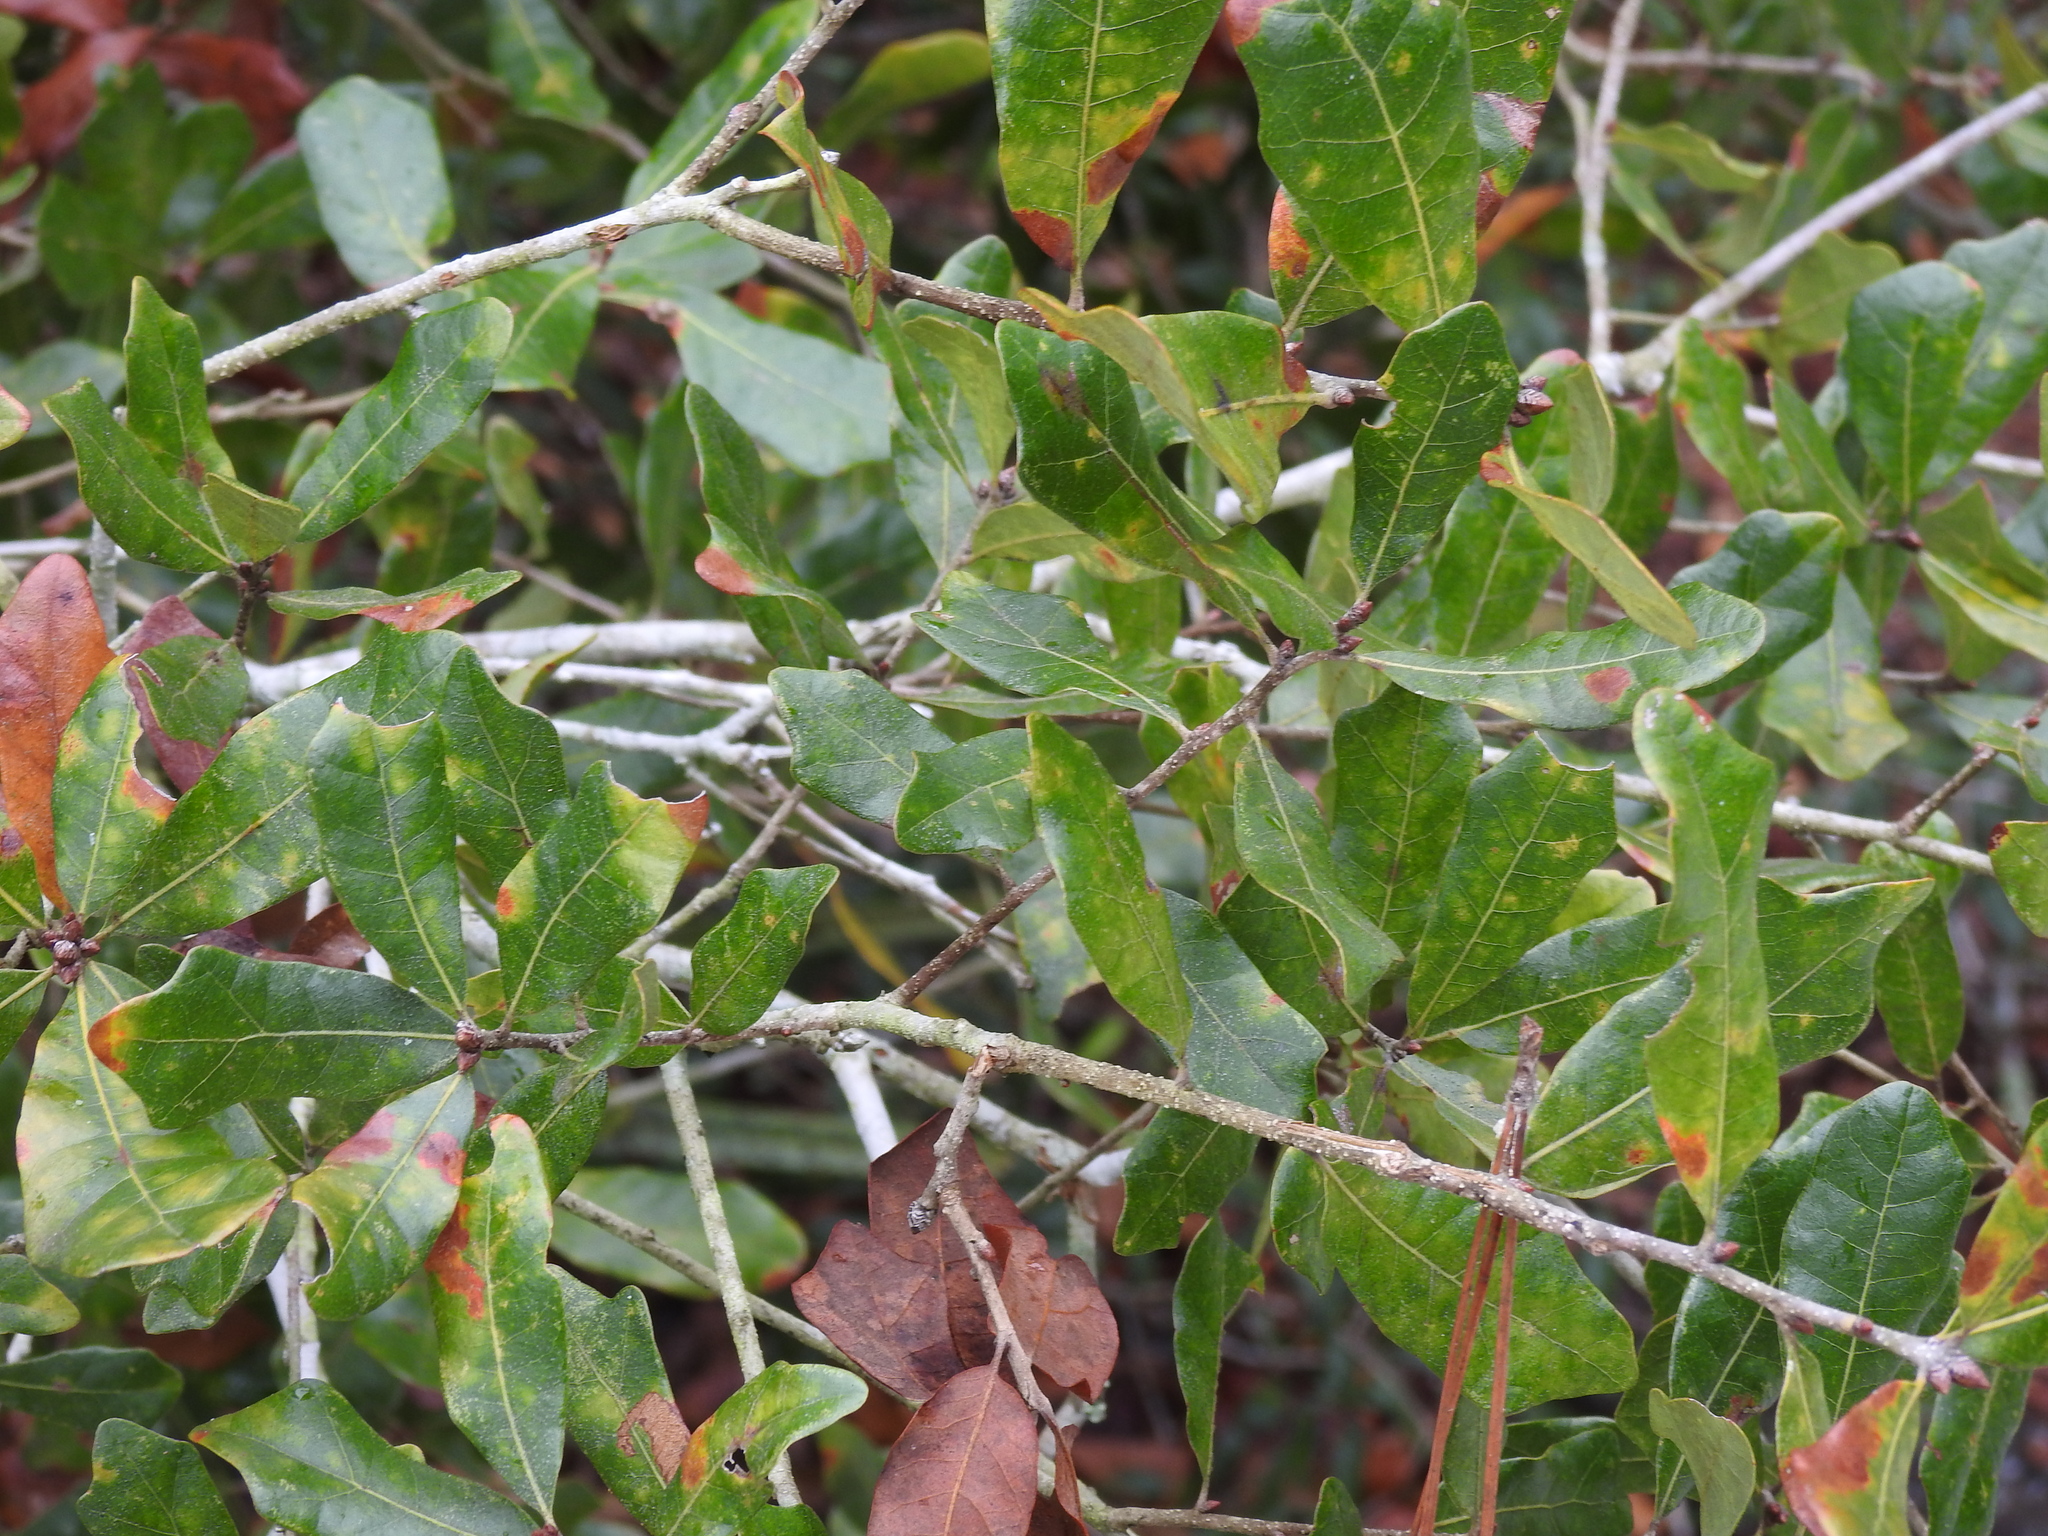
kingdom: Plantae
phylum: Tracheophyta
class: Magnoliopsida
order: Fagales
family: Fagaceae
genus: Quercus
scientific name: Quercus chapmanii
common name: Chapman oak
